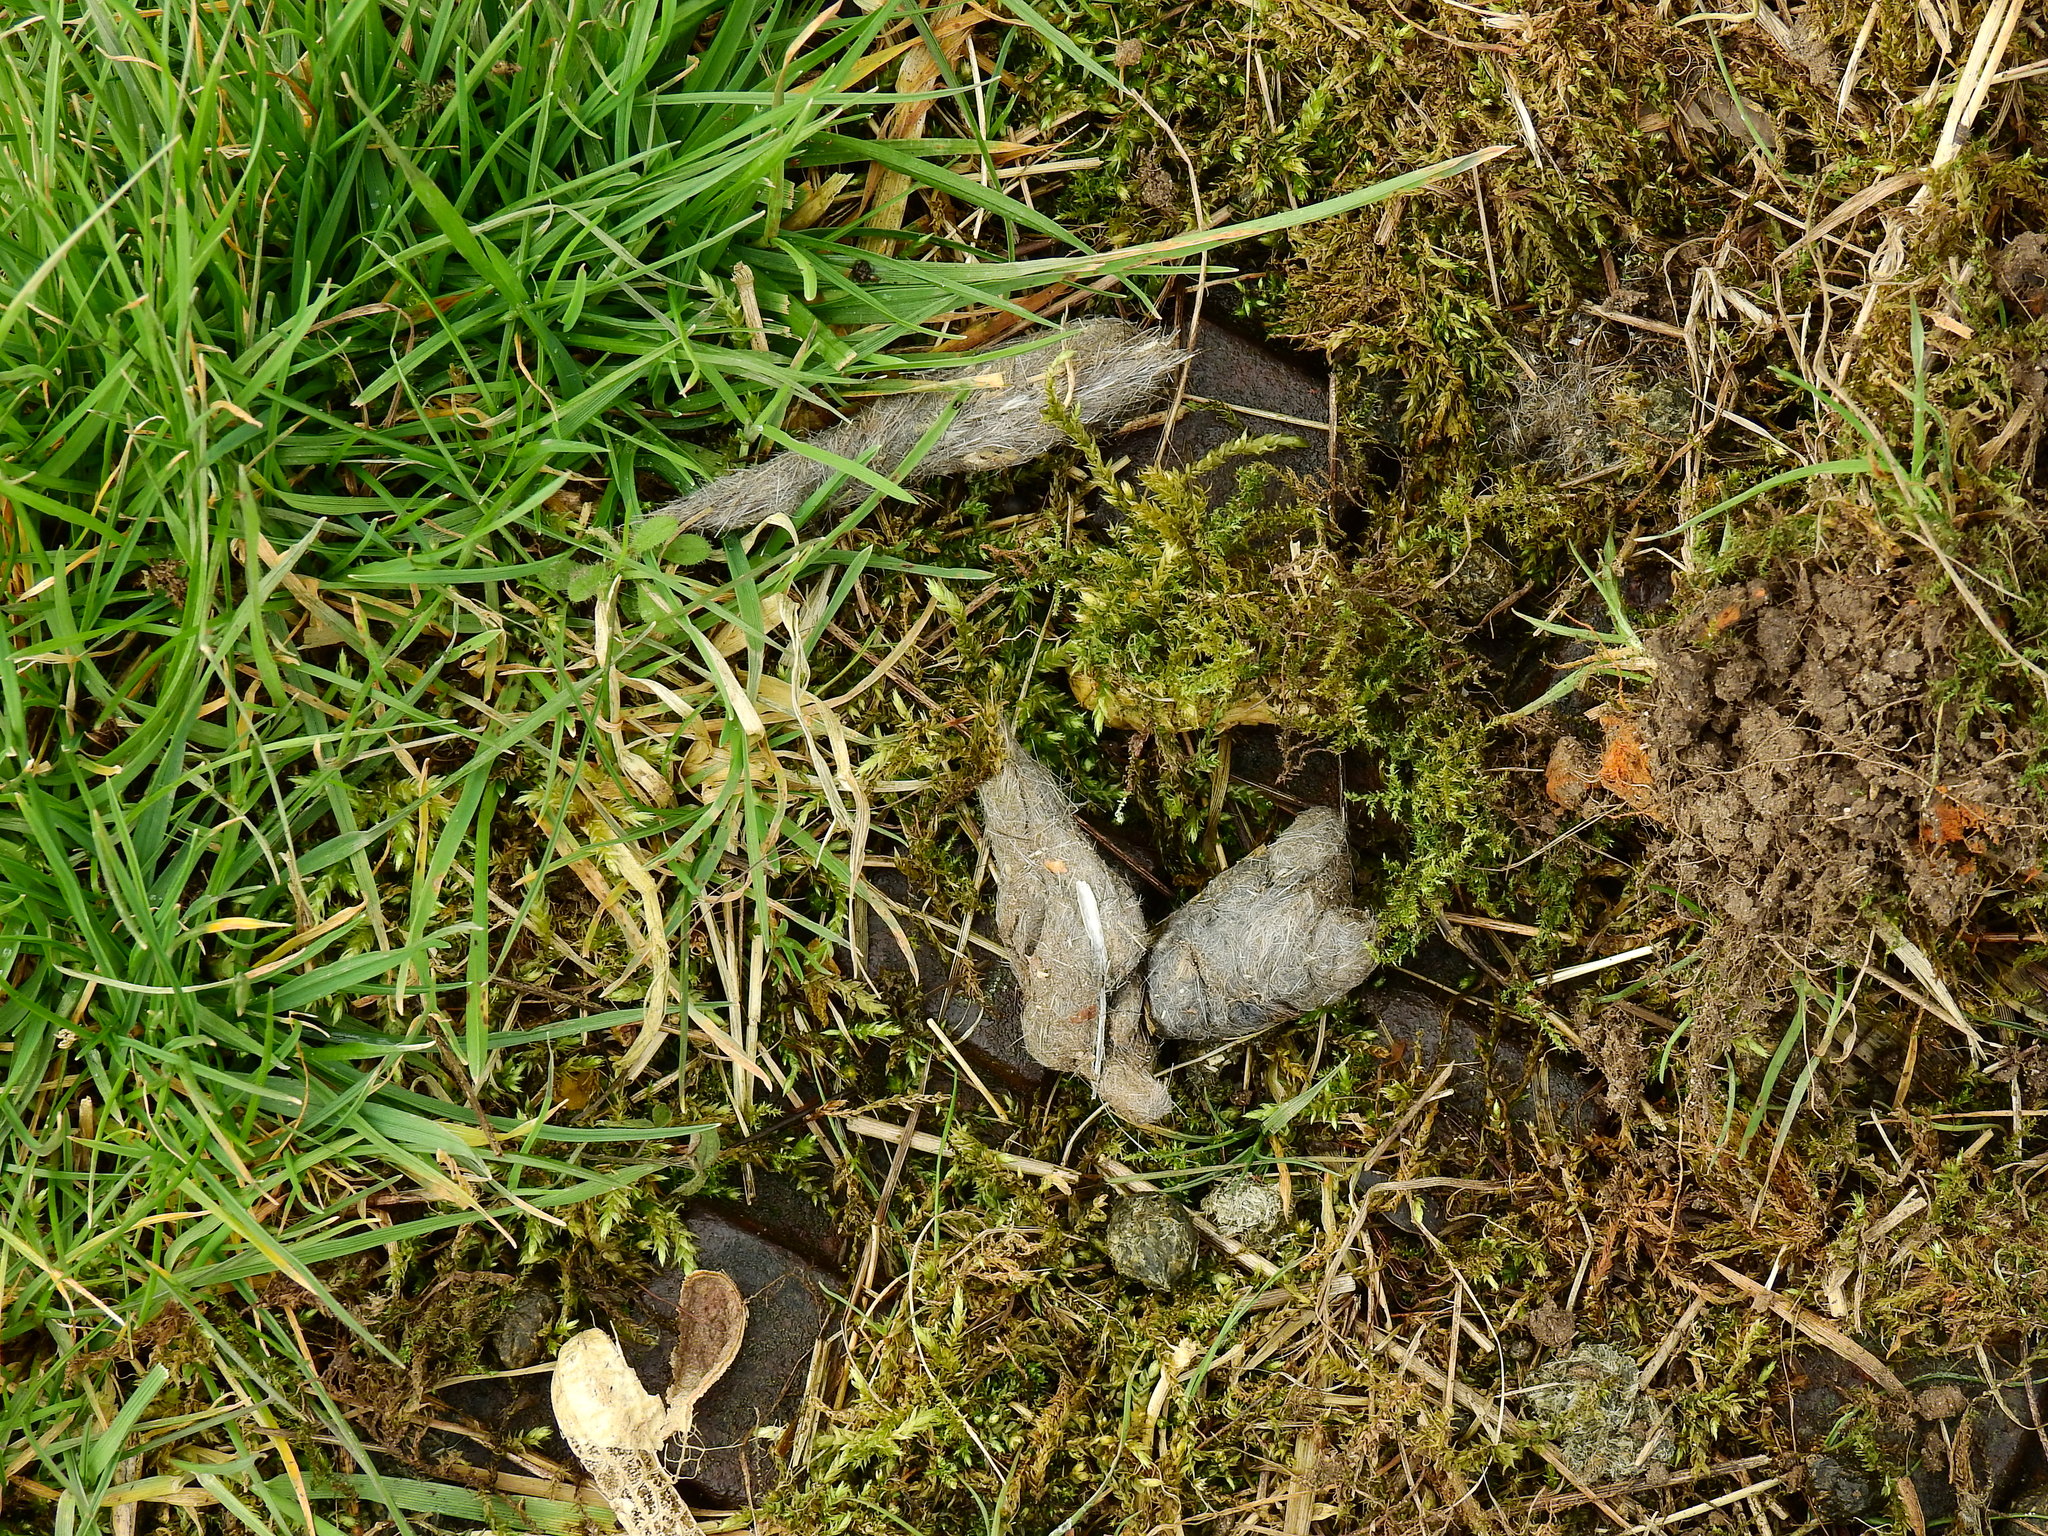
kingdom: Animalia
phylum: Chordata
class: Mammalia
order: Carnivora
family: Canidae
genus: Vulpes
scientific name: Vulpes vulpes
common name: Red fox
